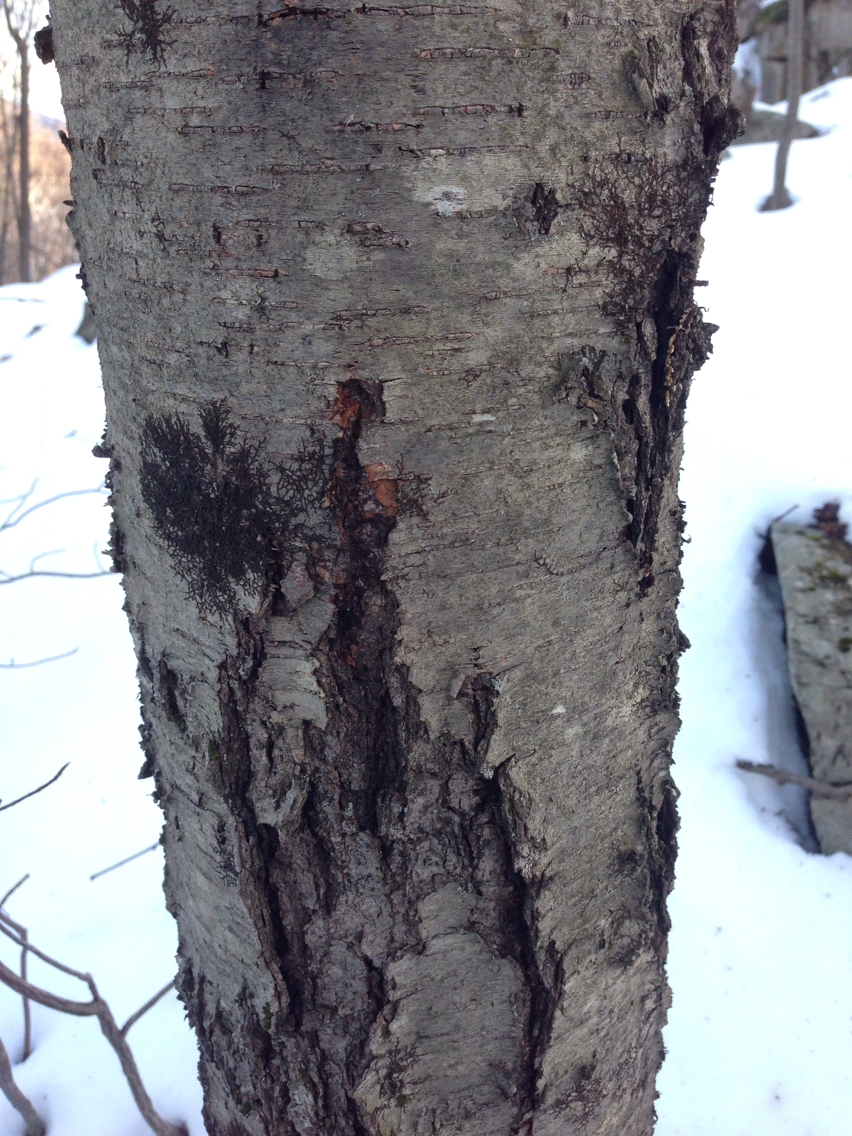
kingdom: Plantae
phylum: Tracheophyta
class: Magnoliopsida
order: Fagales
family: Betulaceae
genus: Betula
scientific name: Betula lenta
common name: Black birch
